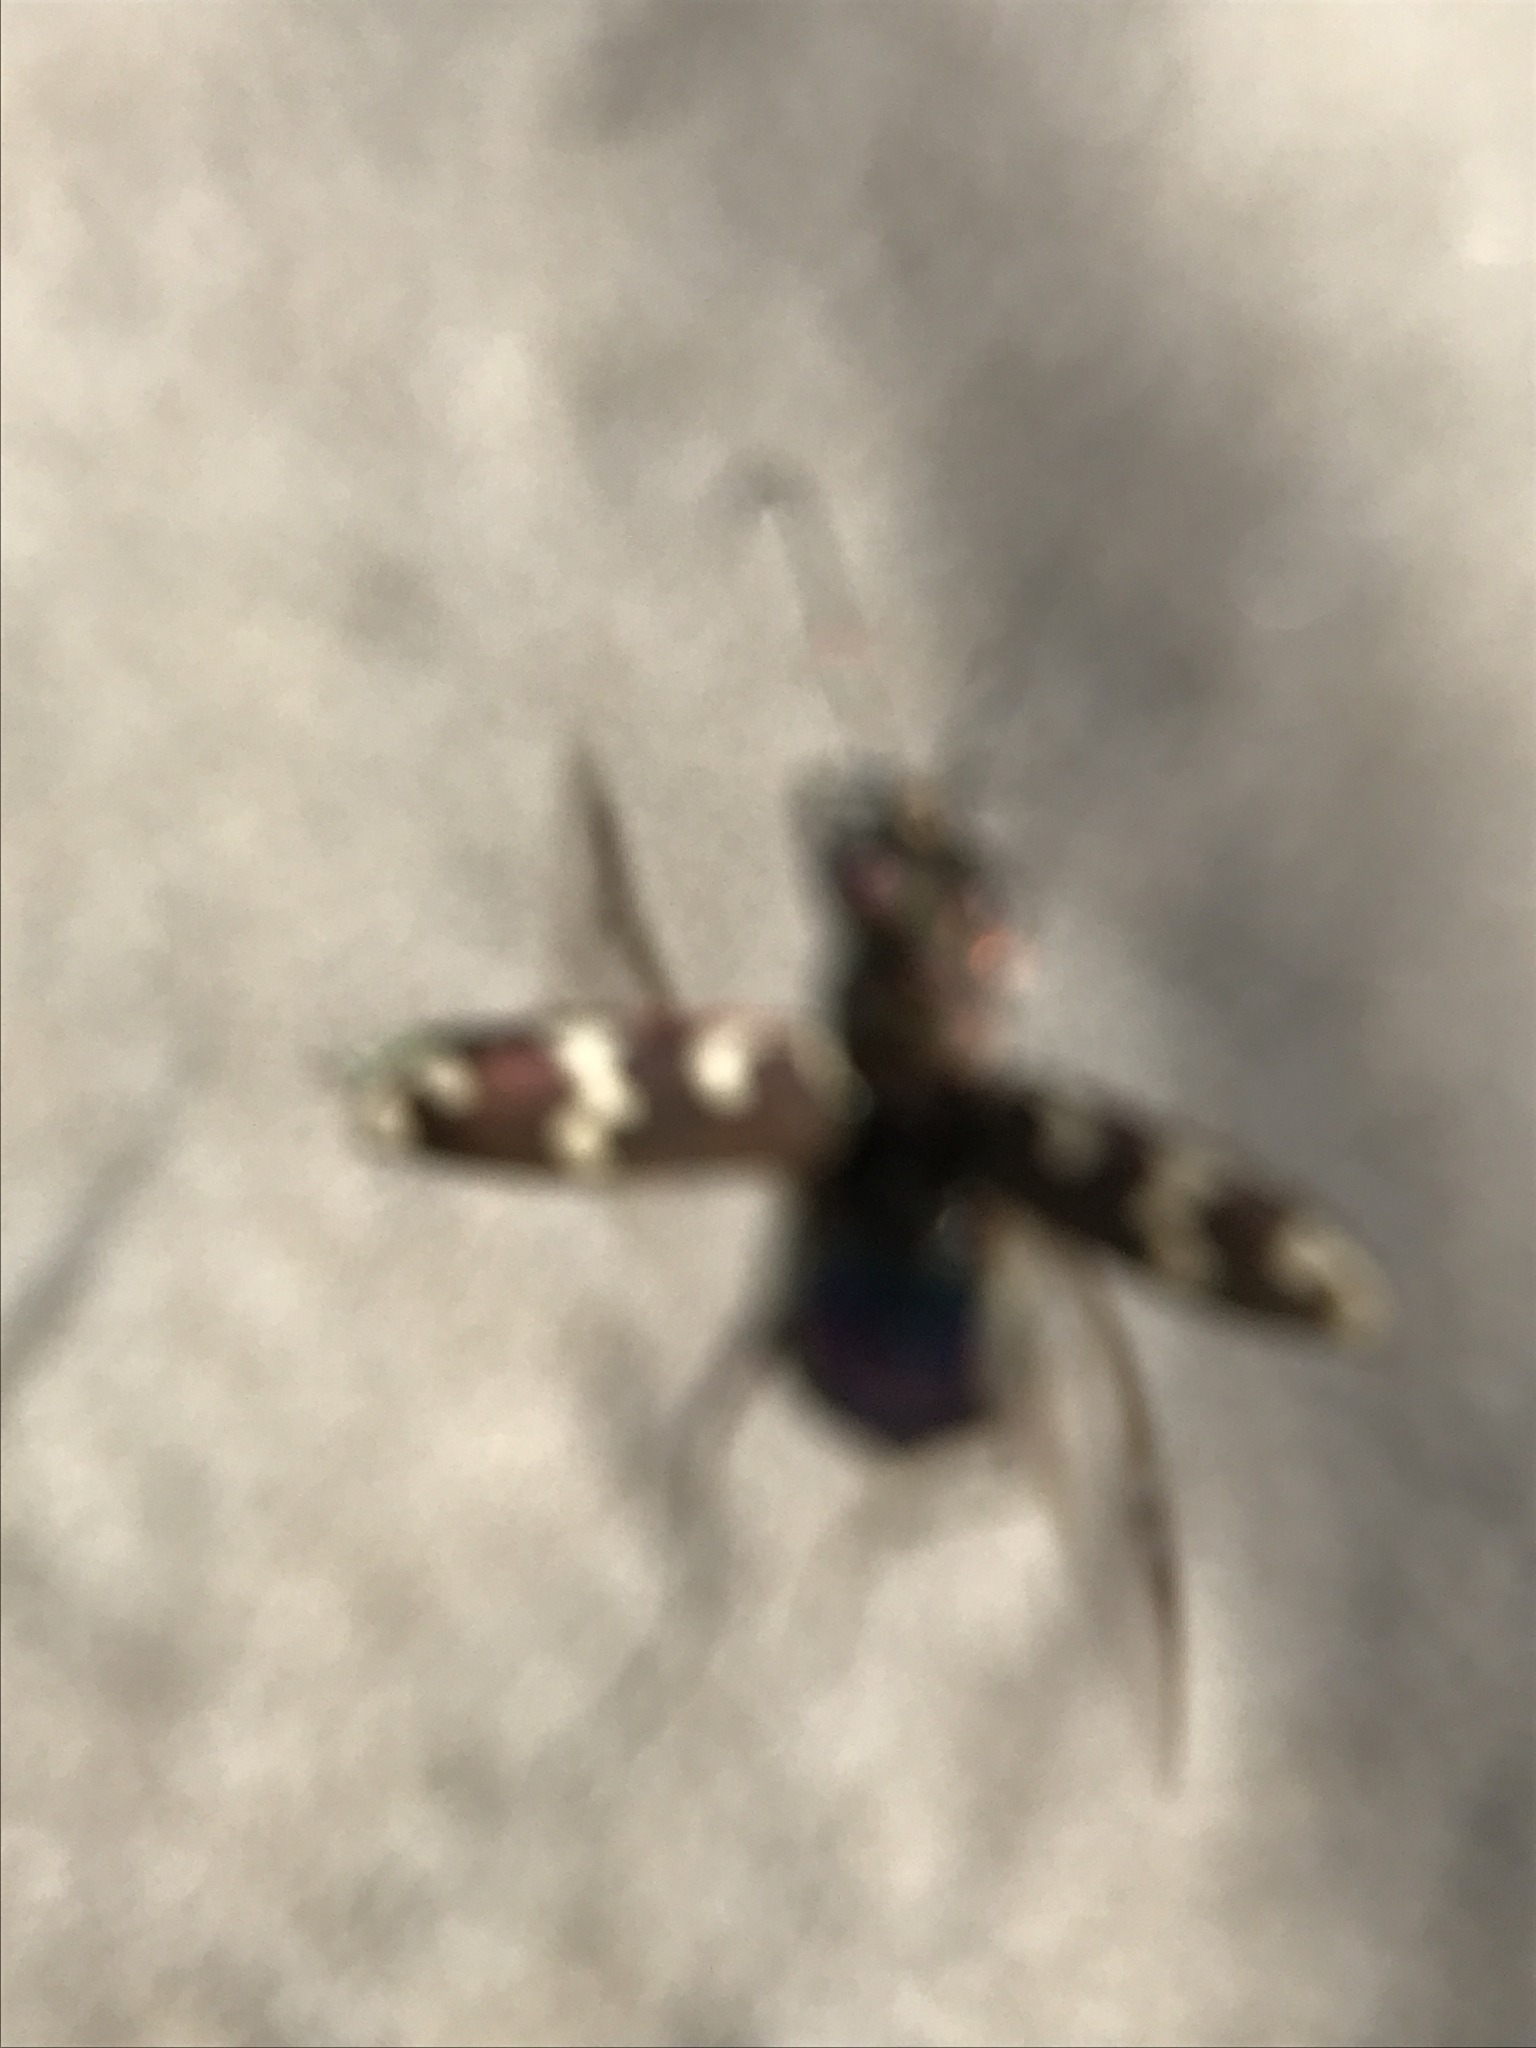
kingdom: Animalia
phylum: Arthropoda
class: Insecta
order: Coleoptera
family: Carabidae
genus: Cicindela
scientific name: Cicindela hybrida
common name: Northern dune tiger beetle
